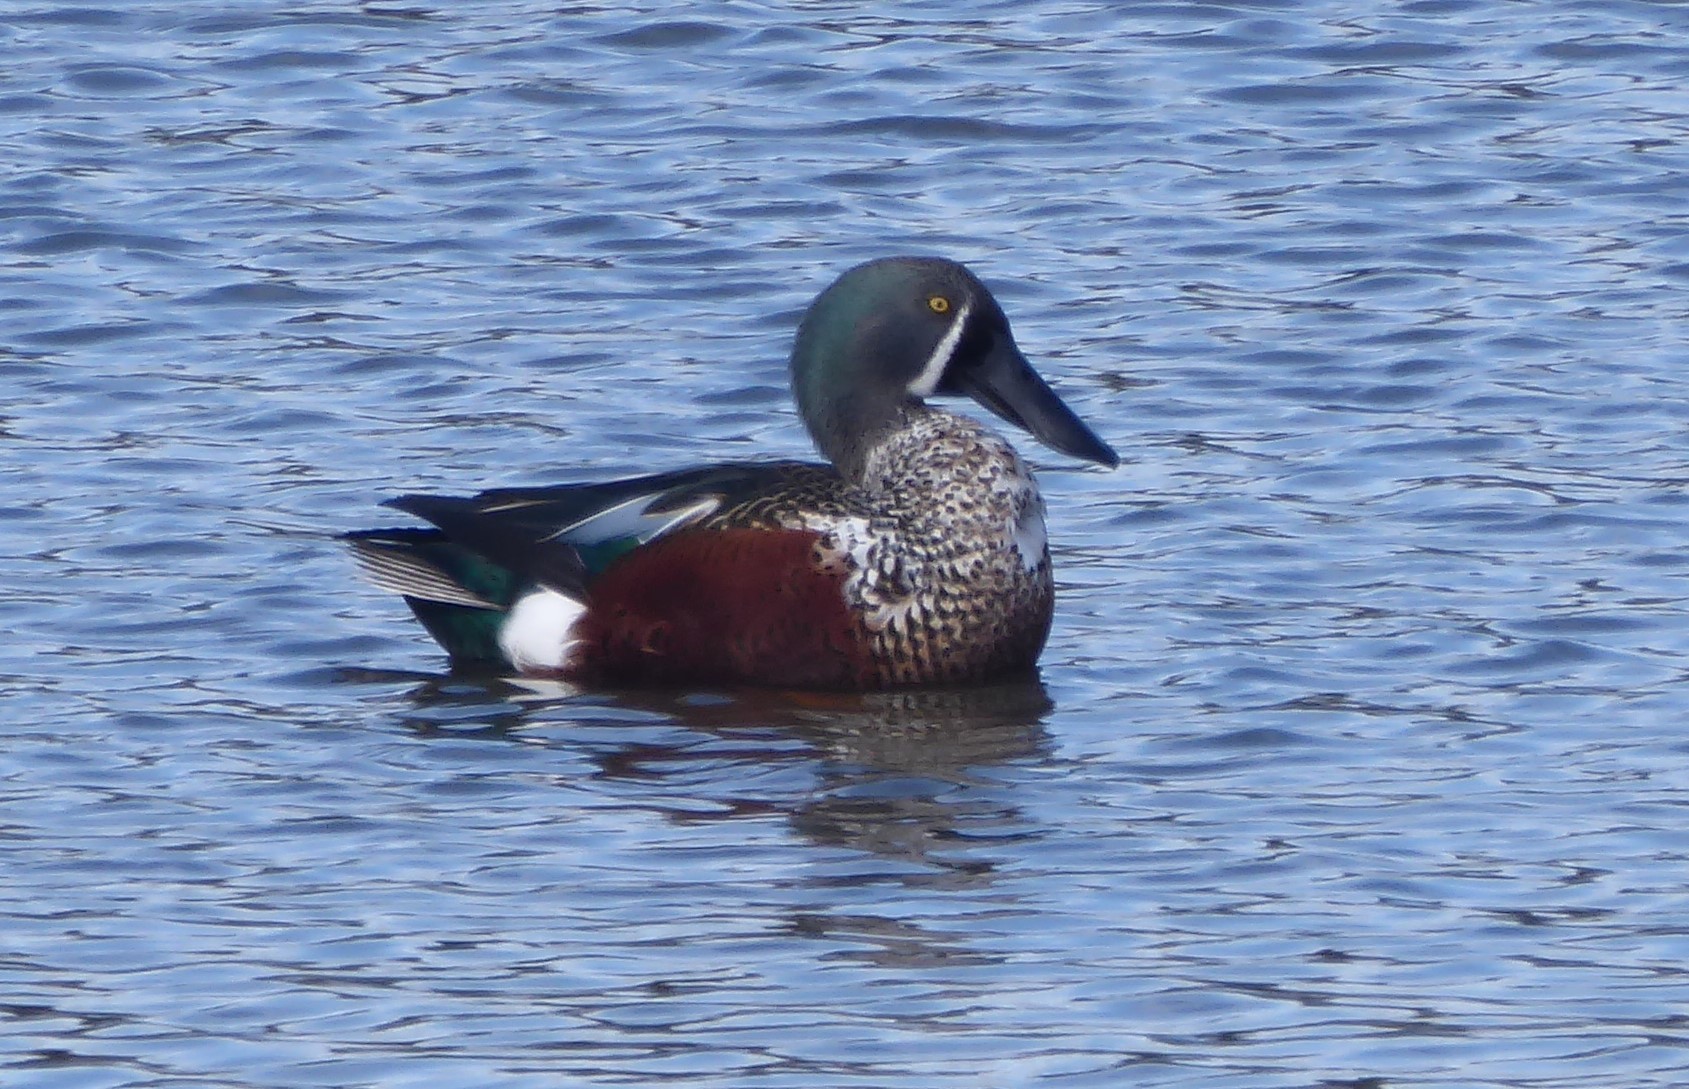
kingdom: Animalia
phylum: Chordata
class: Aves
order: Anseriformes
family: Anatidae
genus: Spatula
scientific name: Spatula rhynchotis
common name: Australian shoveler
